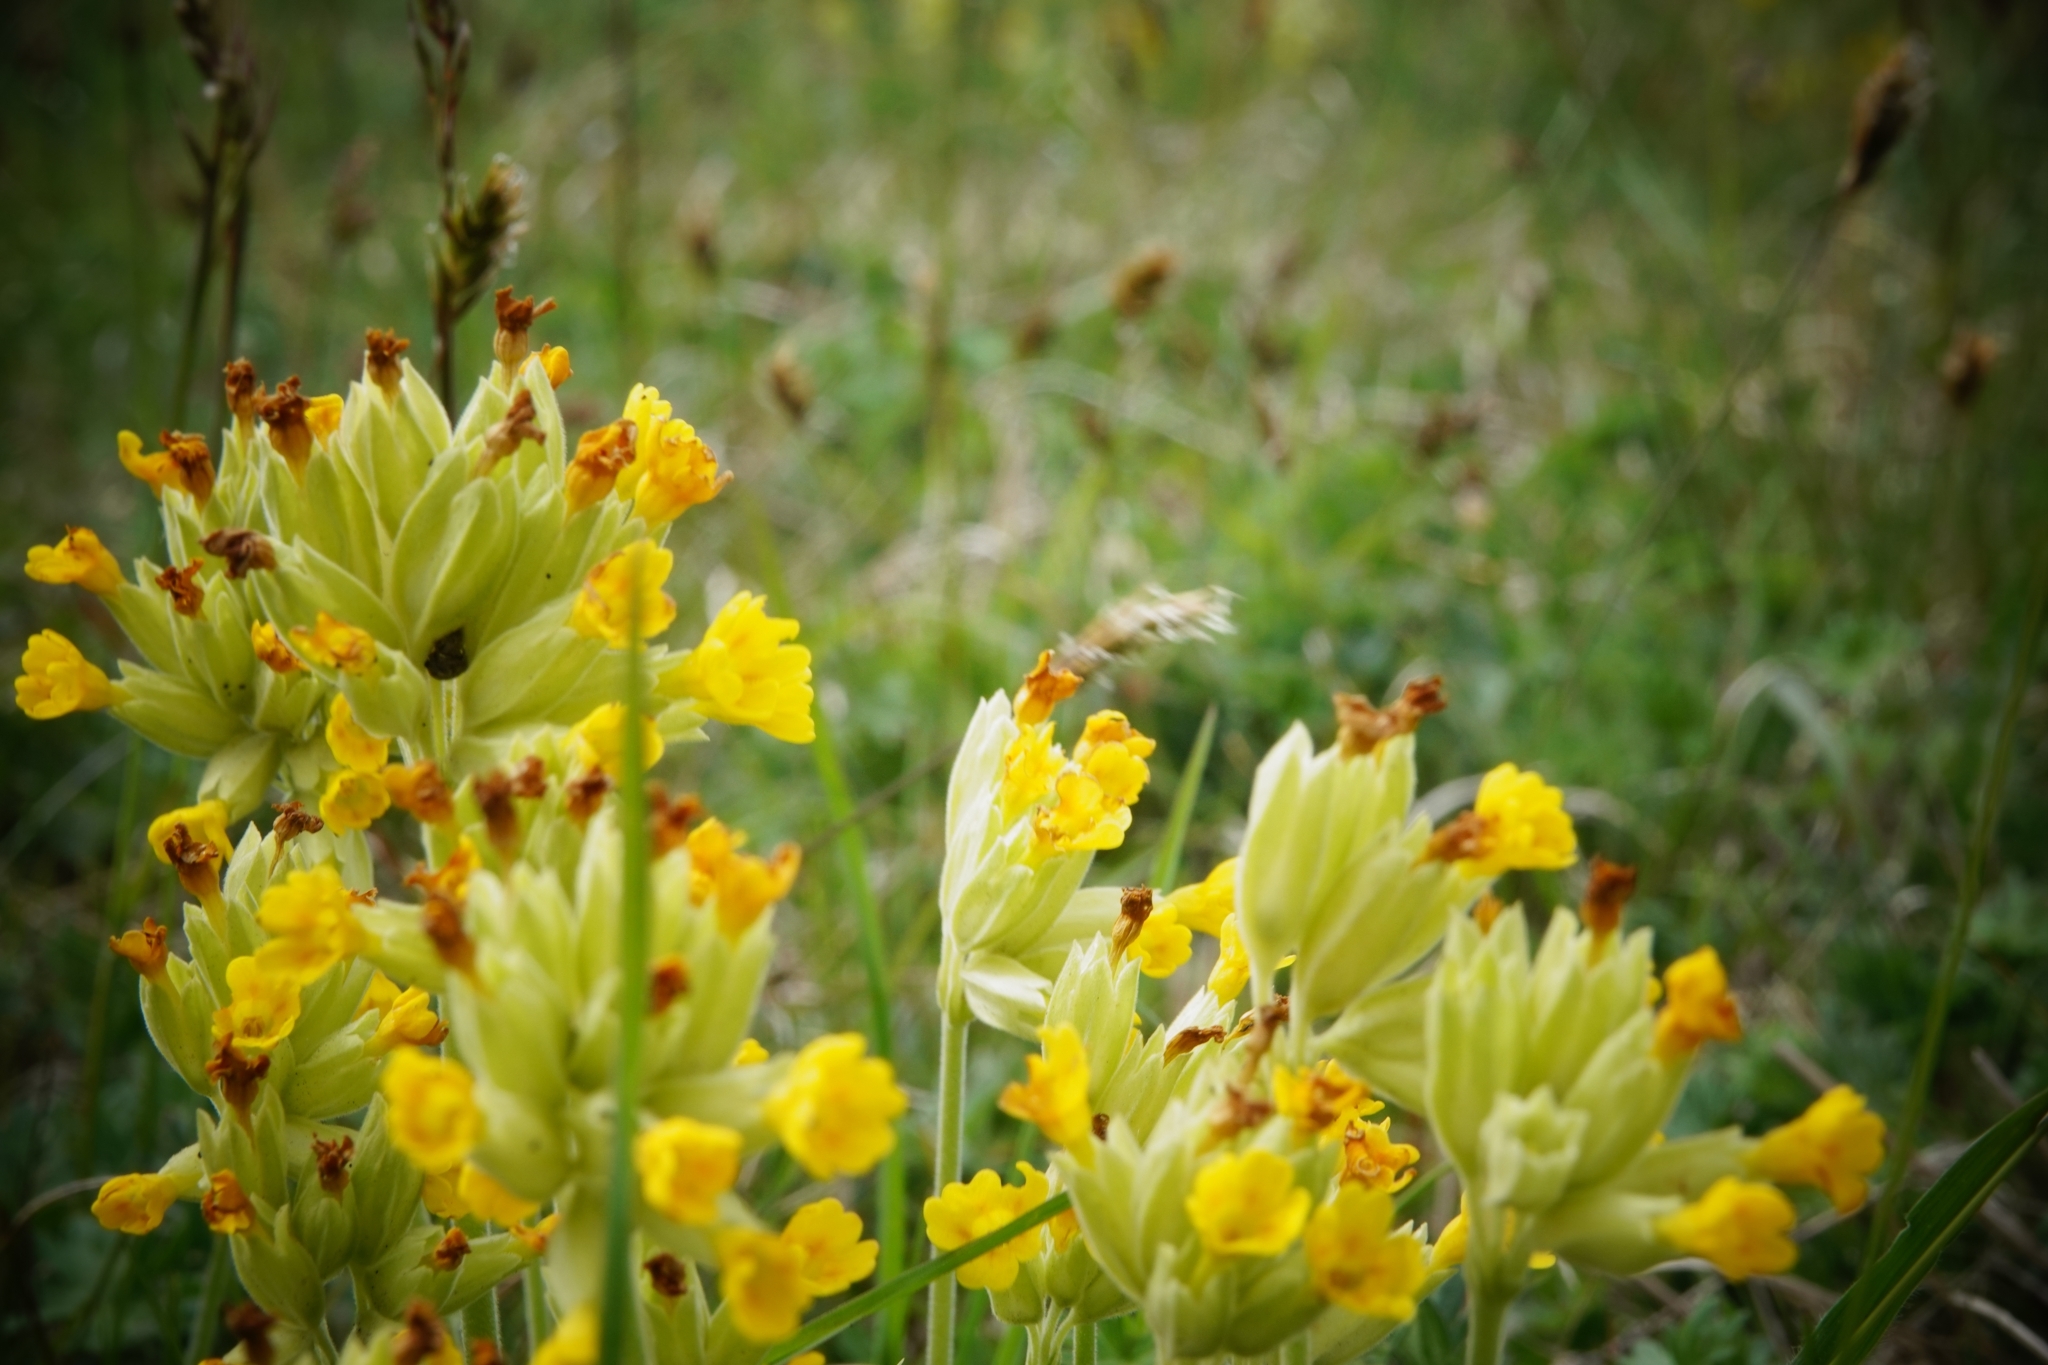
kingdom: Plantae
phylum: Tracheophyta
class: Magnoliopsida
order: Ericales
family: Primulaceae
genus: Primula
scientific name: Primula veris
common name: Cowslip
